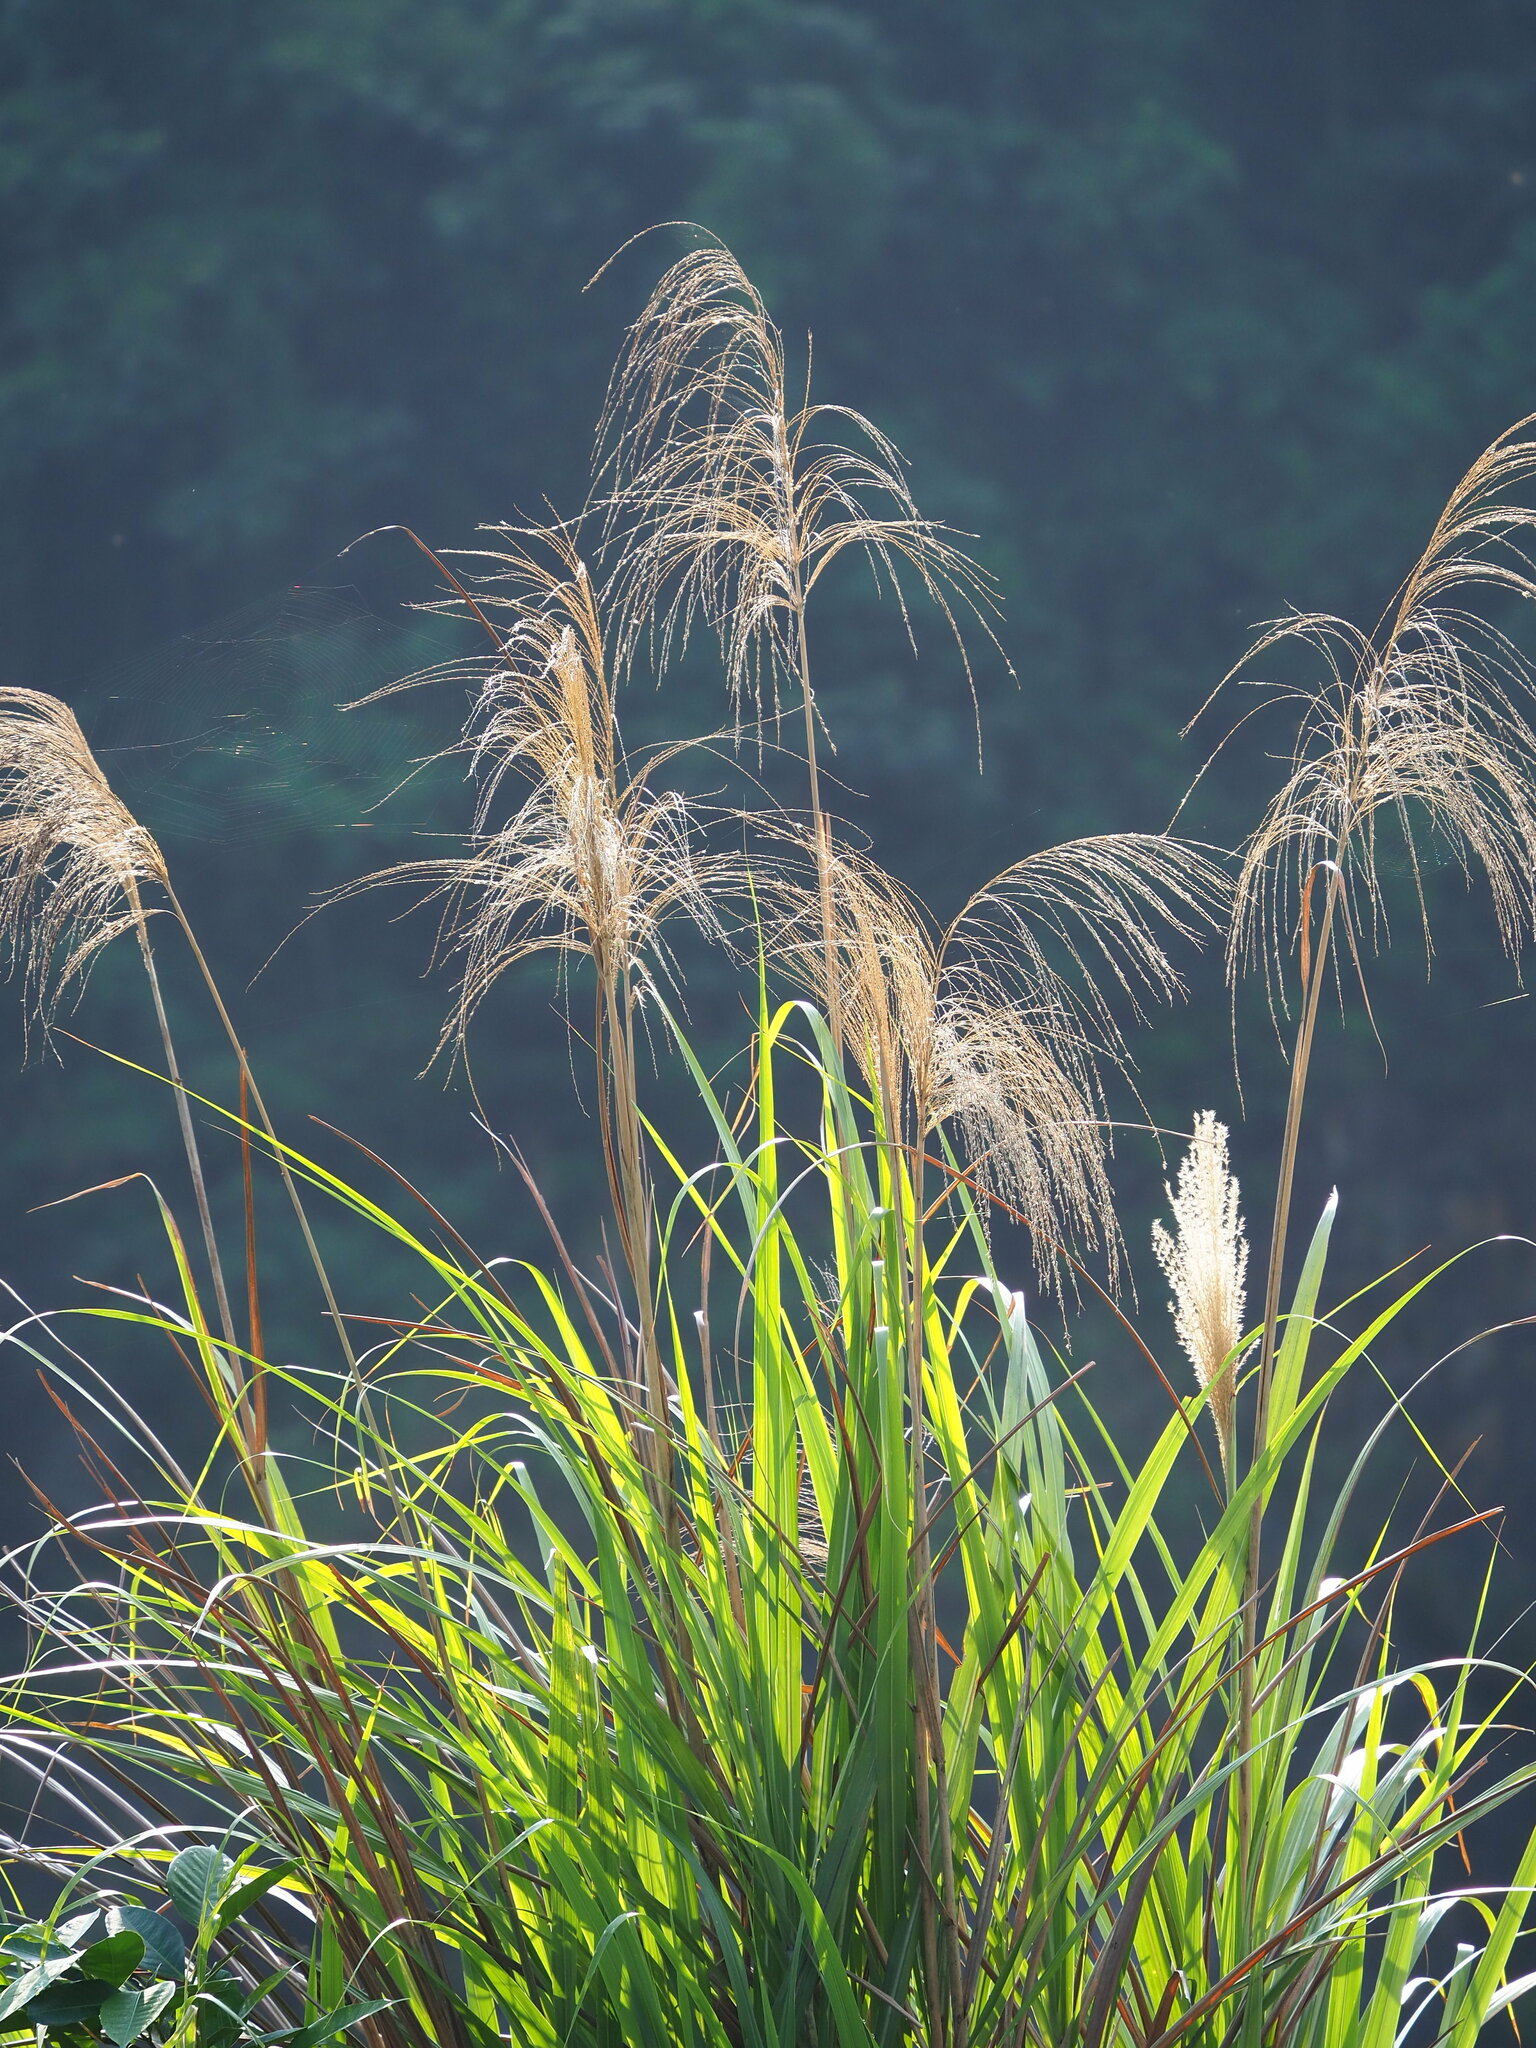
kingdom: Plantae
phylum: Tracheophyta
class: Liliopsida
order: Poales
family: Poaceae
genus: Miscanthus
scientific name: Miscanthus sinensis
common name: Chinese silvergrass
